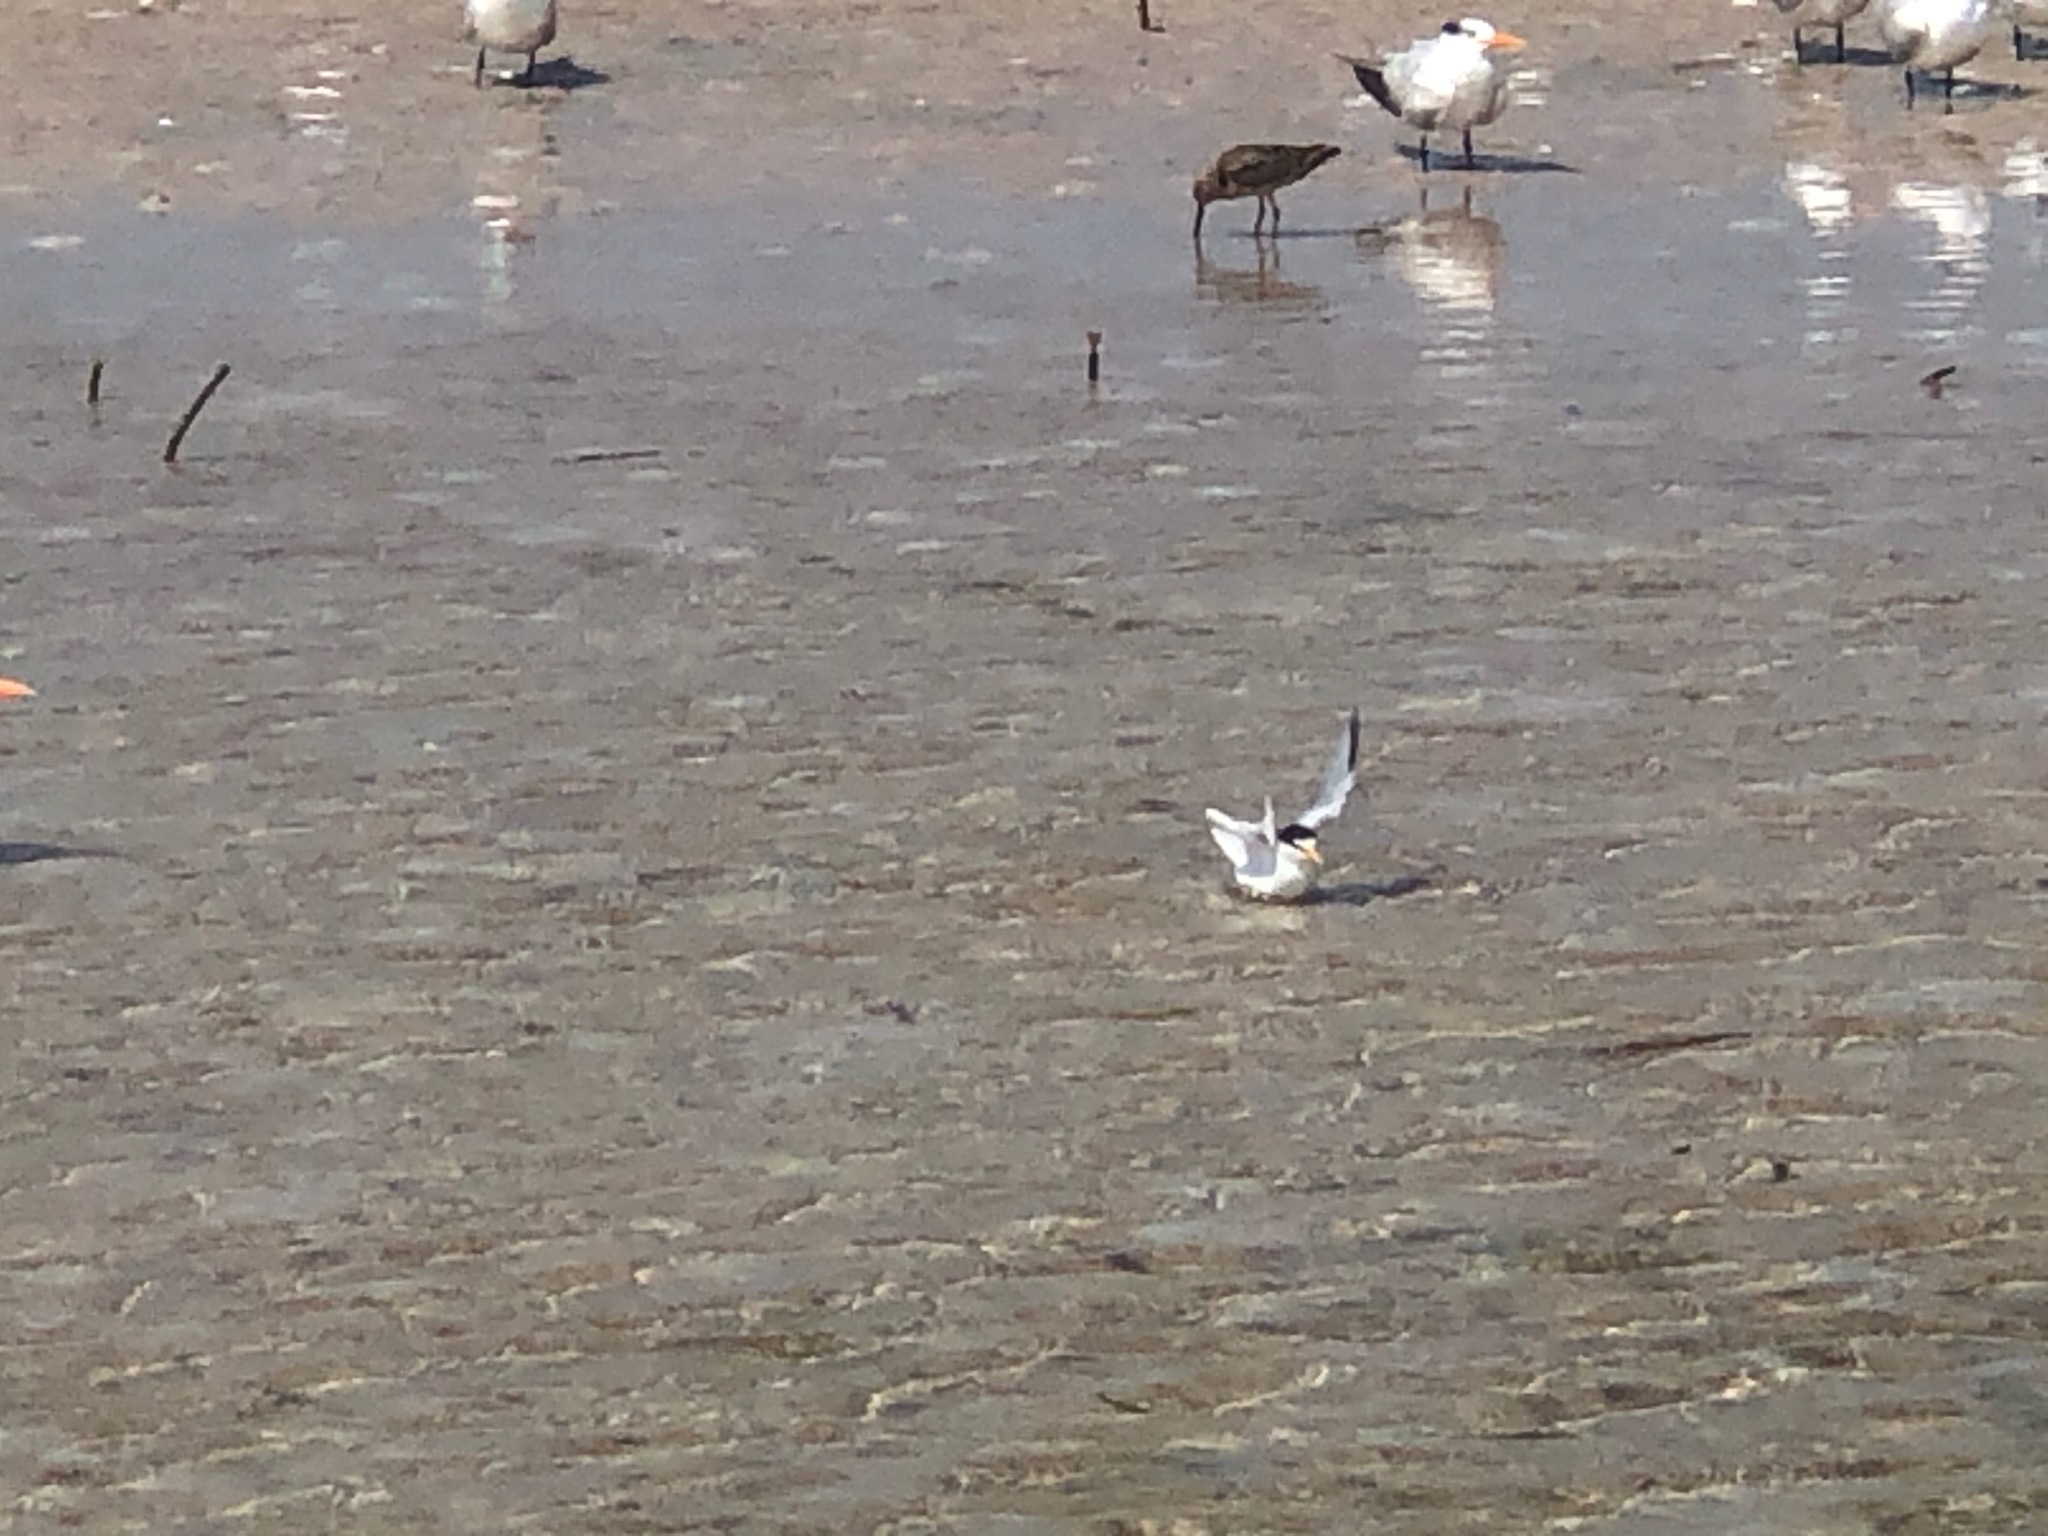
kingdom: Animalia
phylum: Chordata
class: Aves
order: Charadriiformes
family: Laridae
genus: Sternula
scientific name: Sternula antillarum
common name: Least tern
